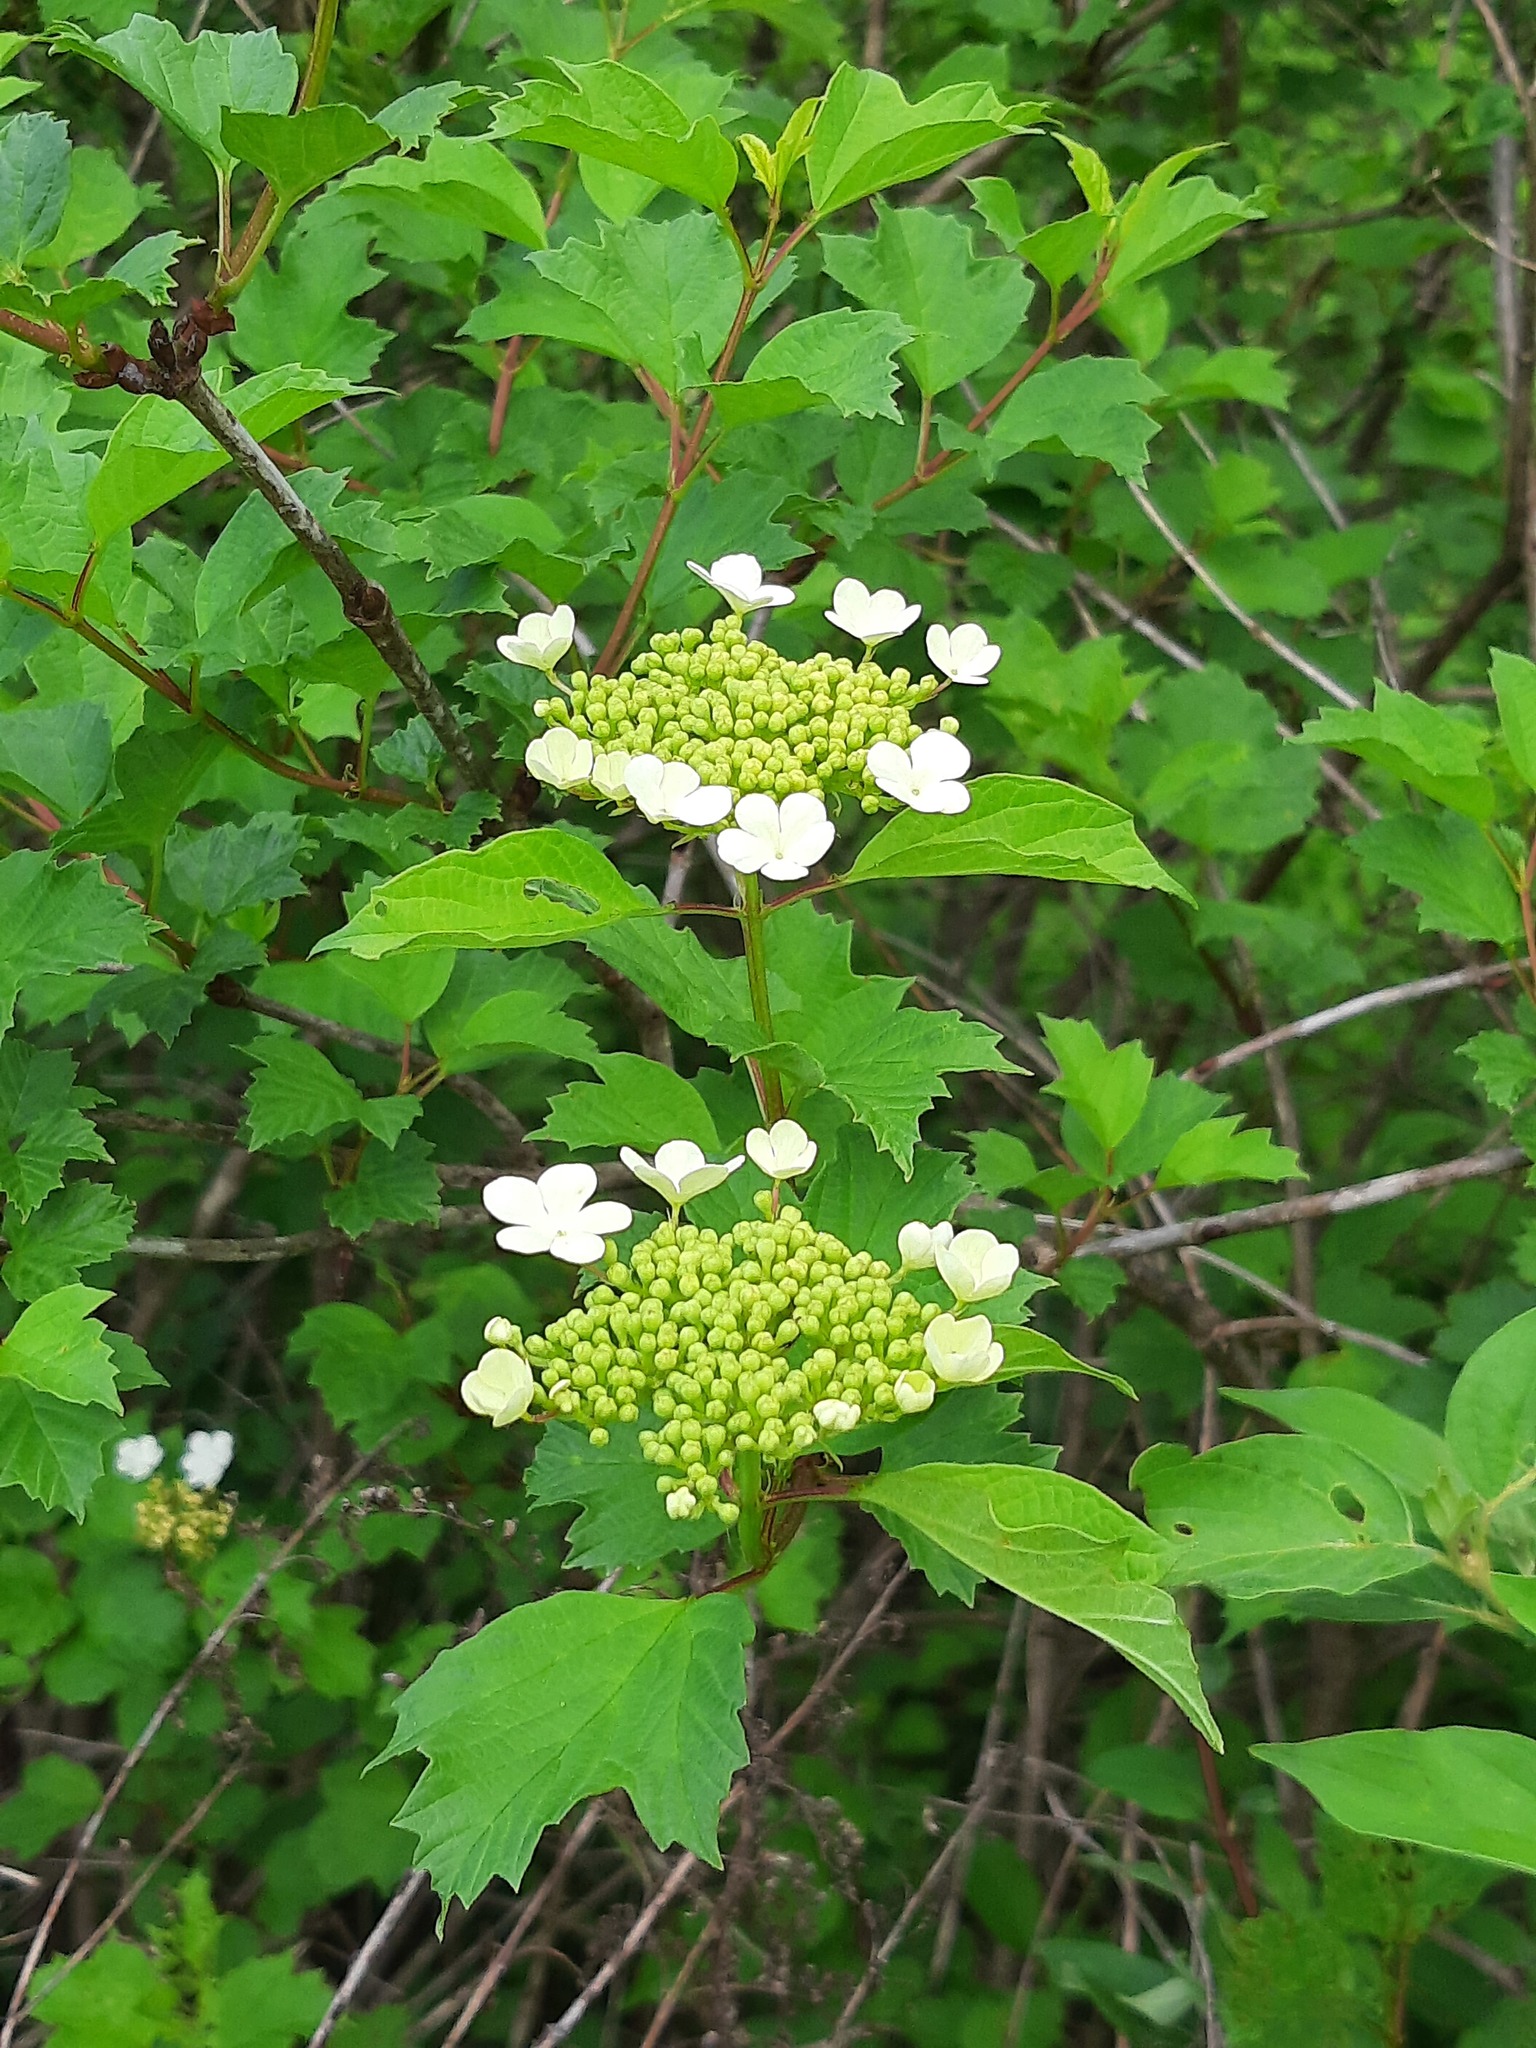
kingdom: Plantae
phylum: Tracheophyta
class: Magnoliopsida
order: Dipsacales
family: Viburnaceae
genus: Viburnum
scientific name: Viburnum opulus
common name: Guelder-rose
